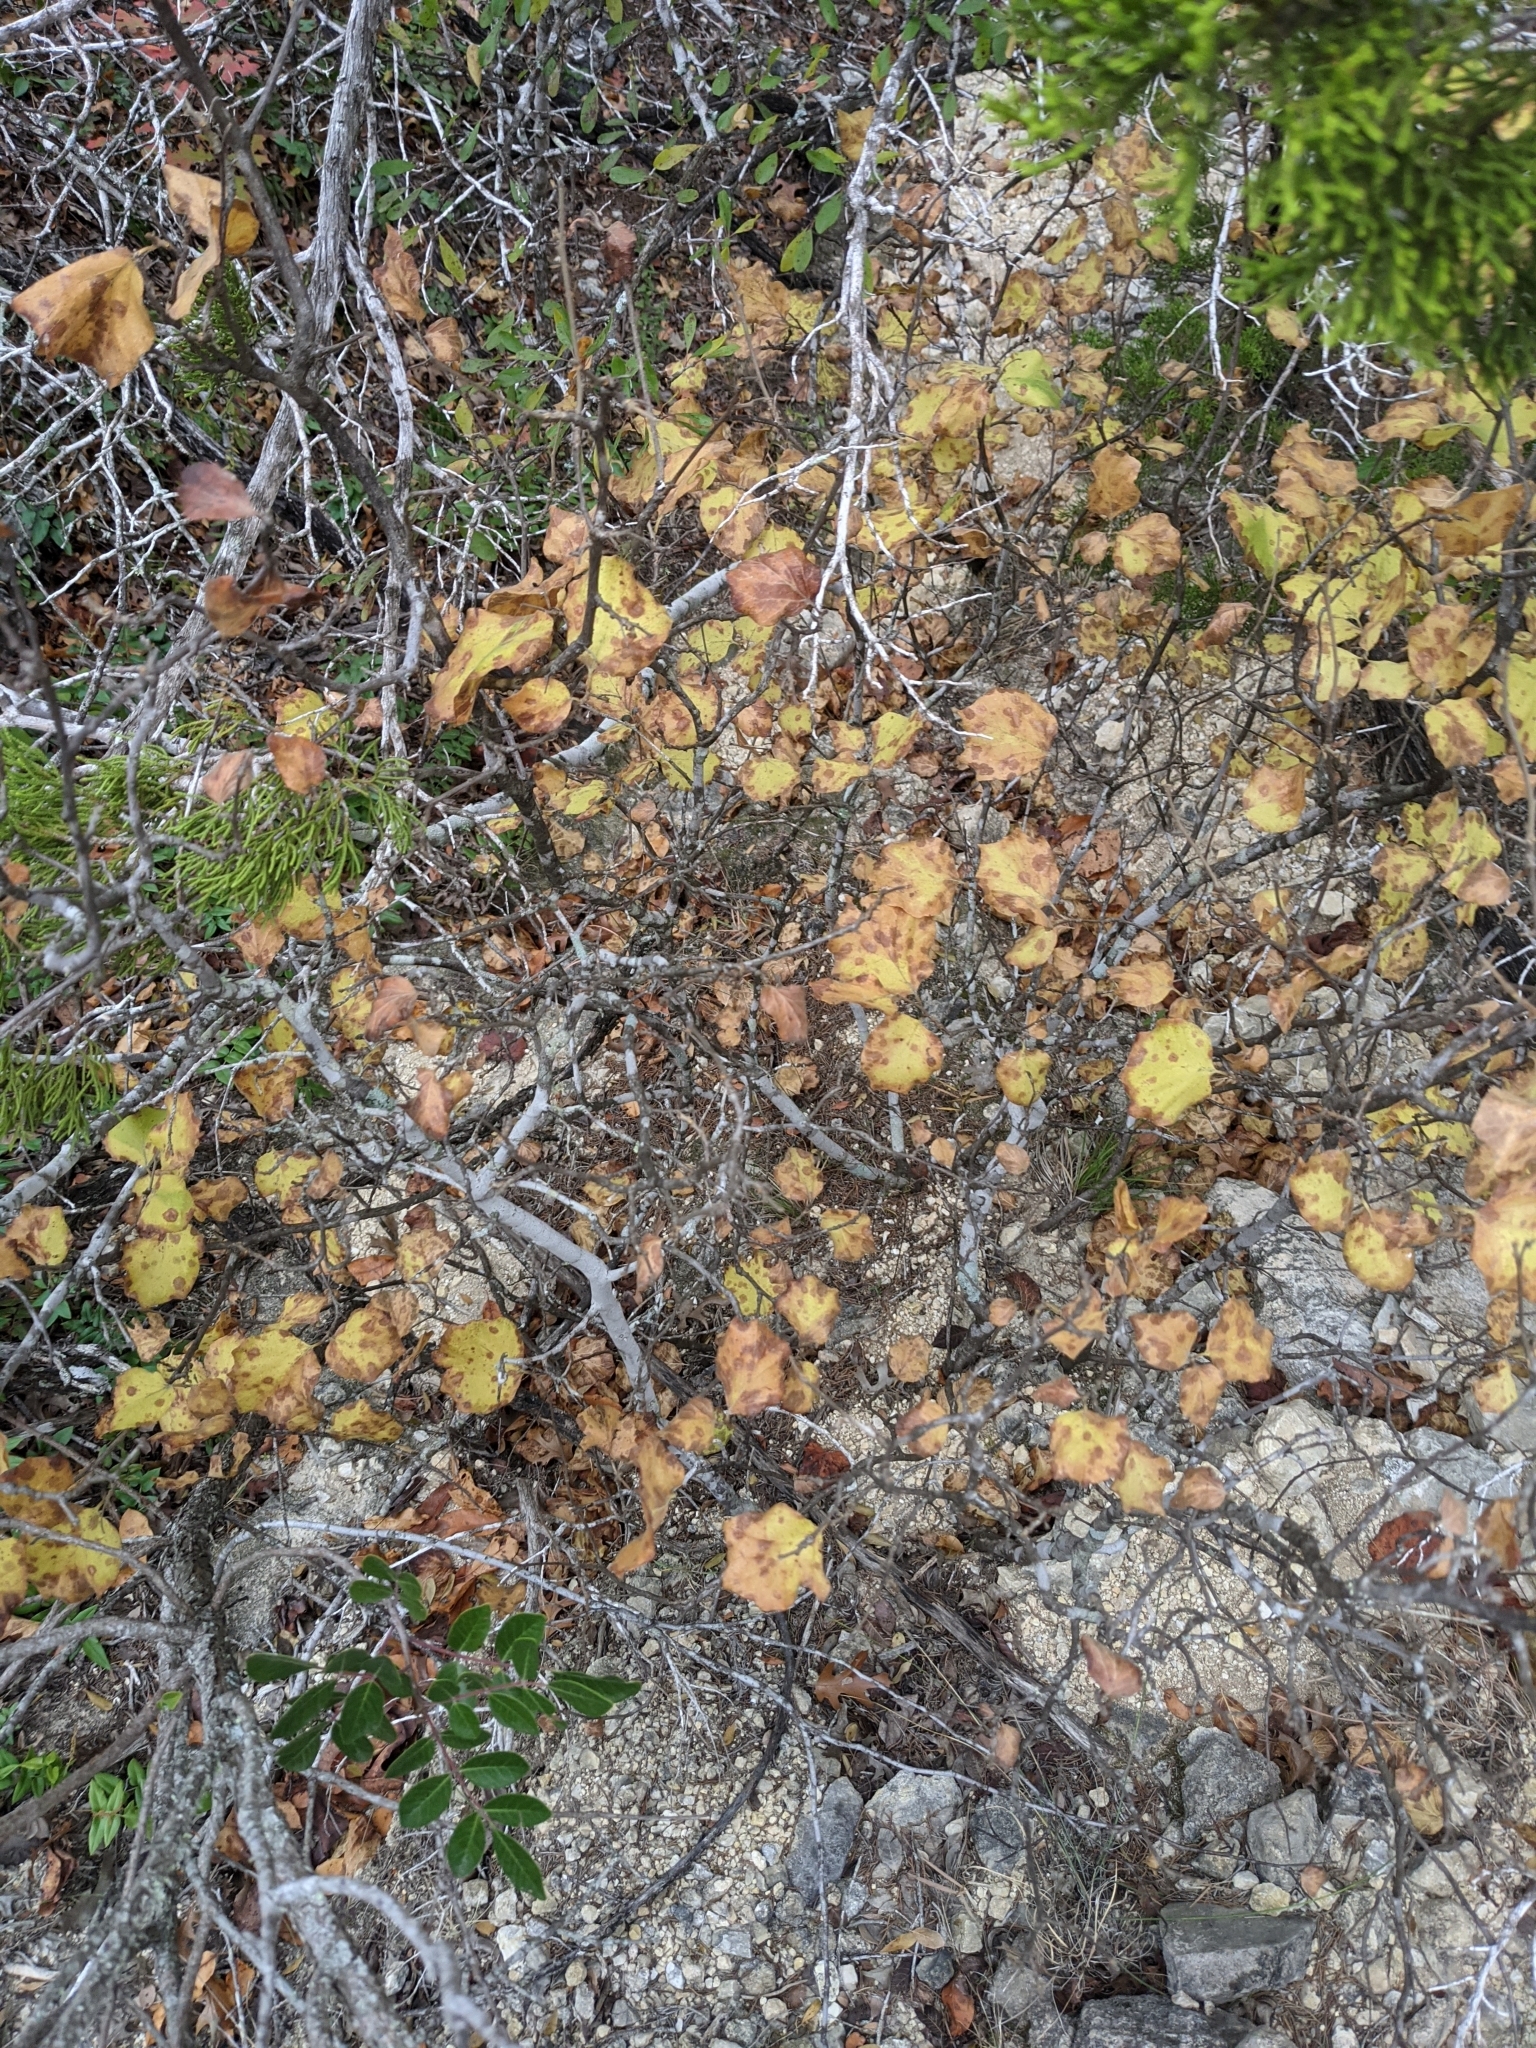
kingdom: Plantae
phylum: Tracheophyta
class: Magnoliopsida
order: Ericales
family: Styracaceae
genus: Styrax
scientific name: Styrax platanifolius
